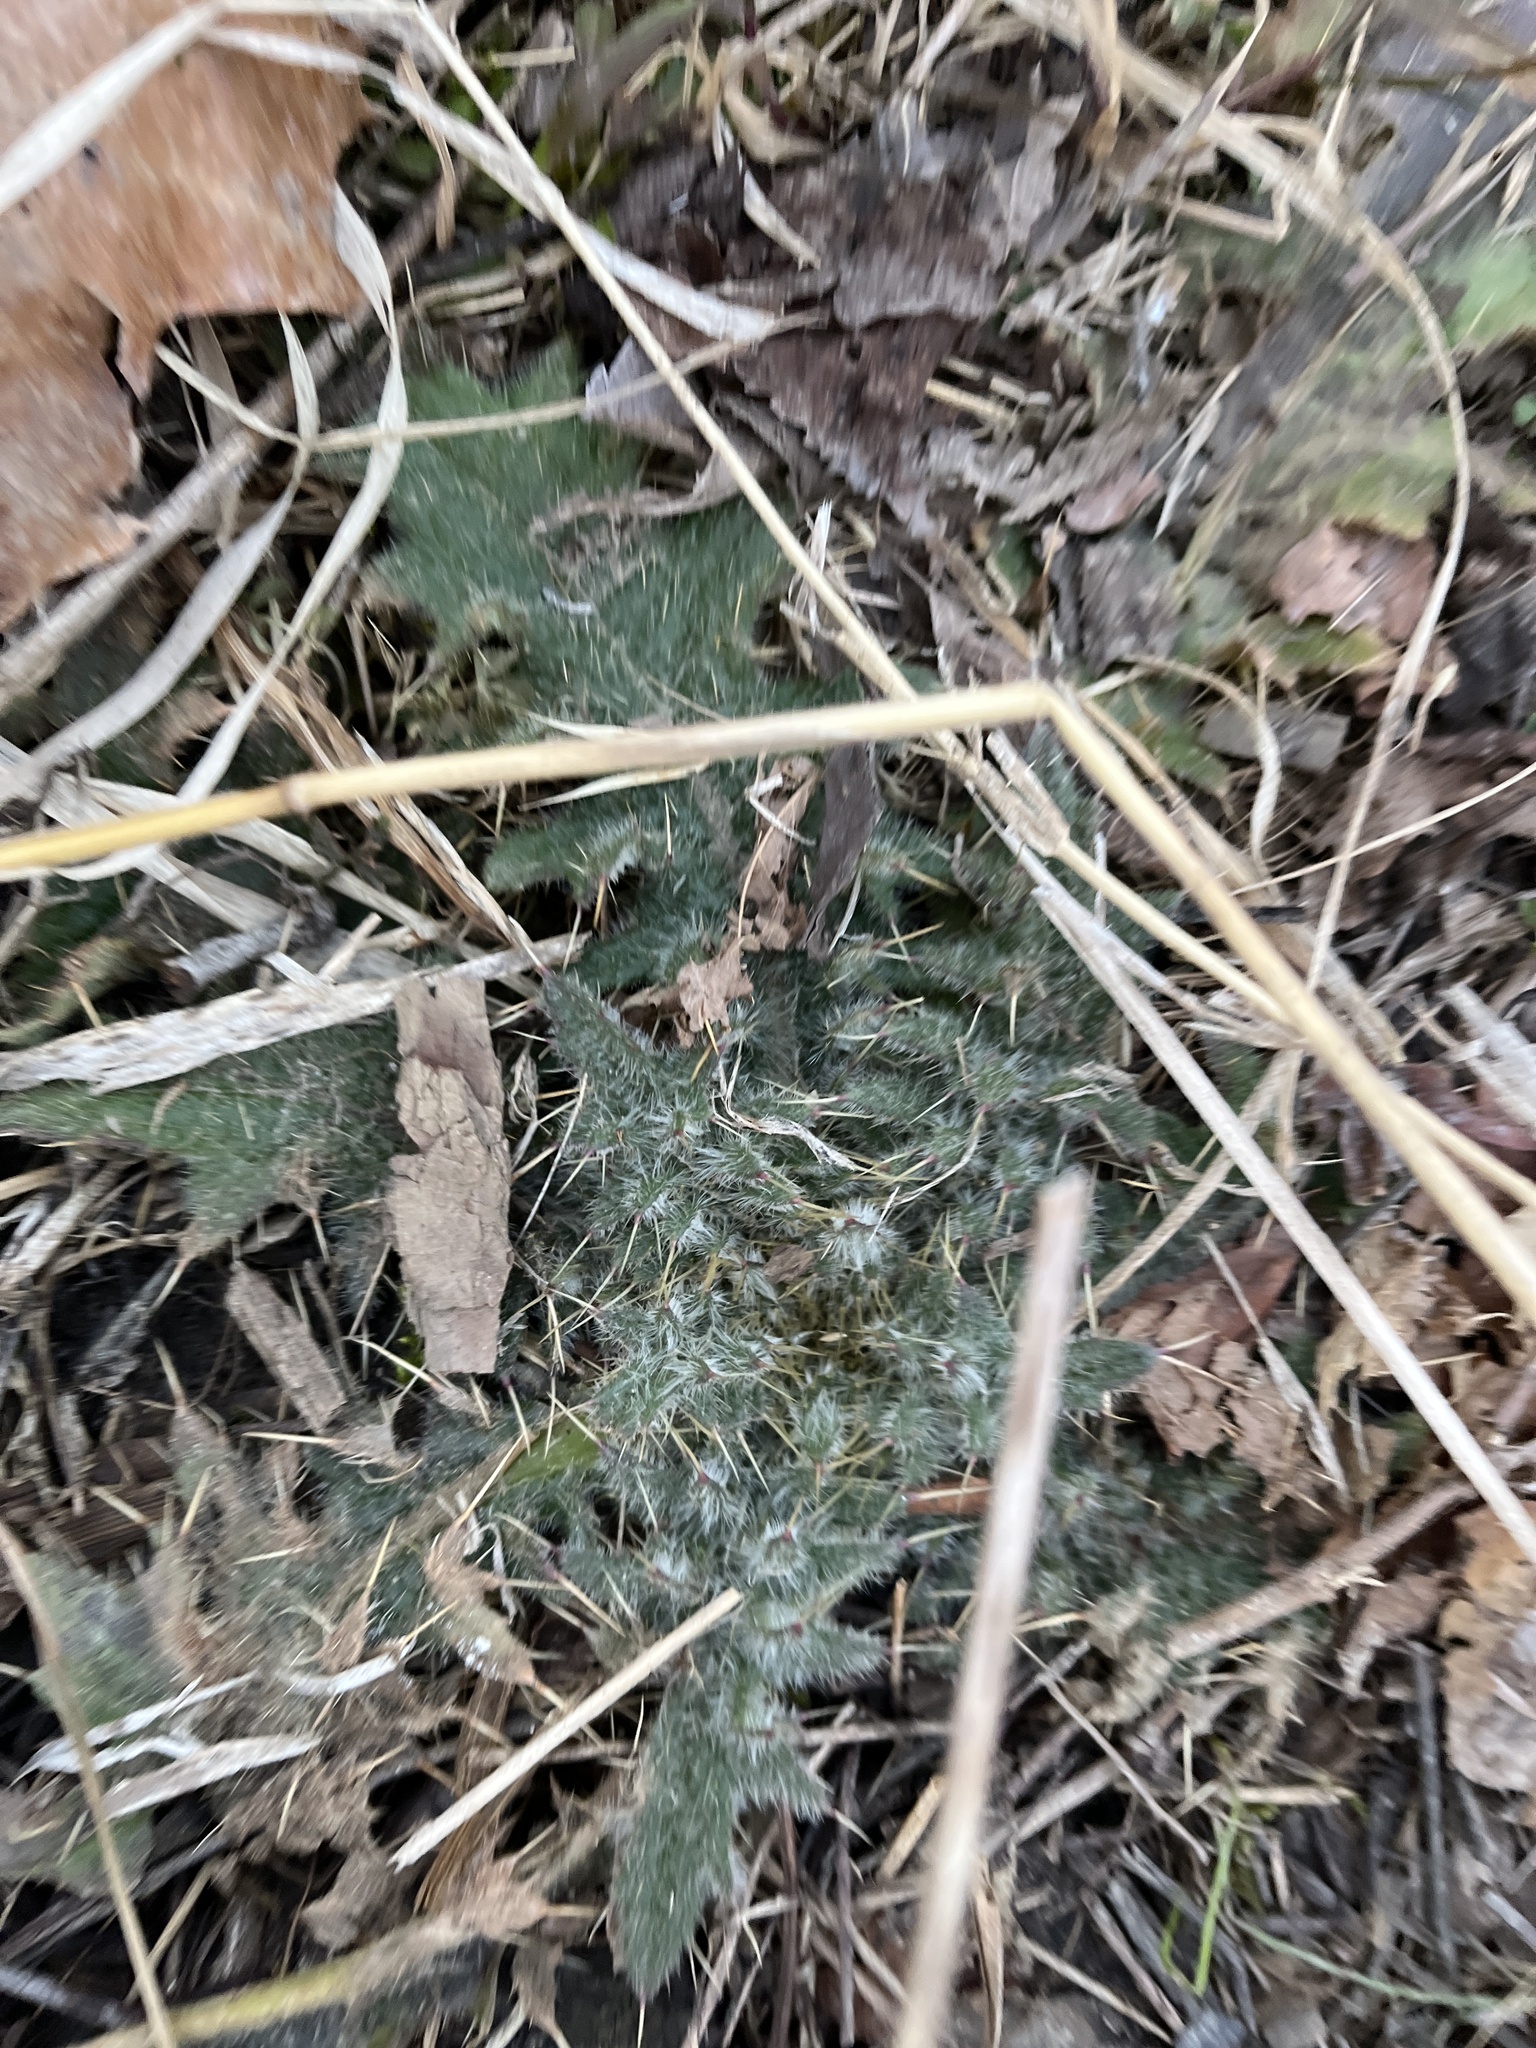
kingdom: Plantae
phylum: Tracheophyta
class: Magnoliopsida
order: Asterales
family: Asteraceae
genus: Cirsium
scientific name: Cirsium vulgare
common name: Bull thistle
